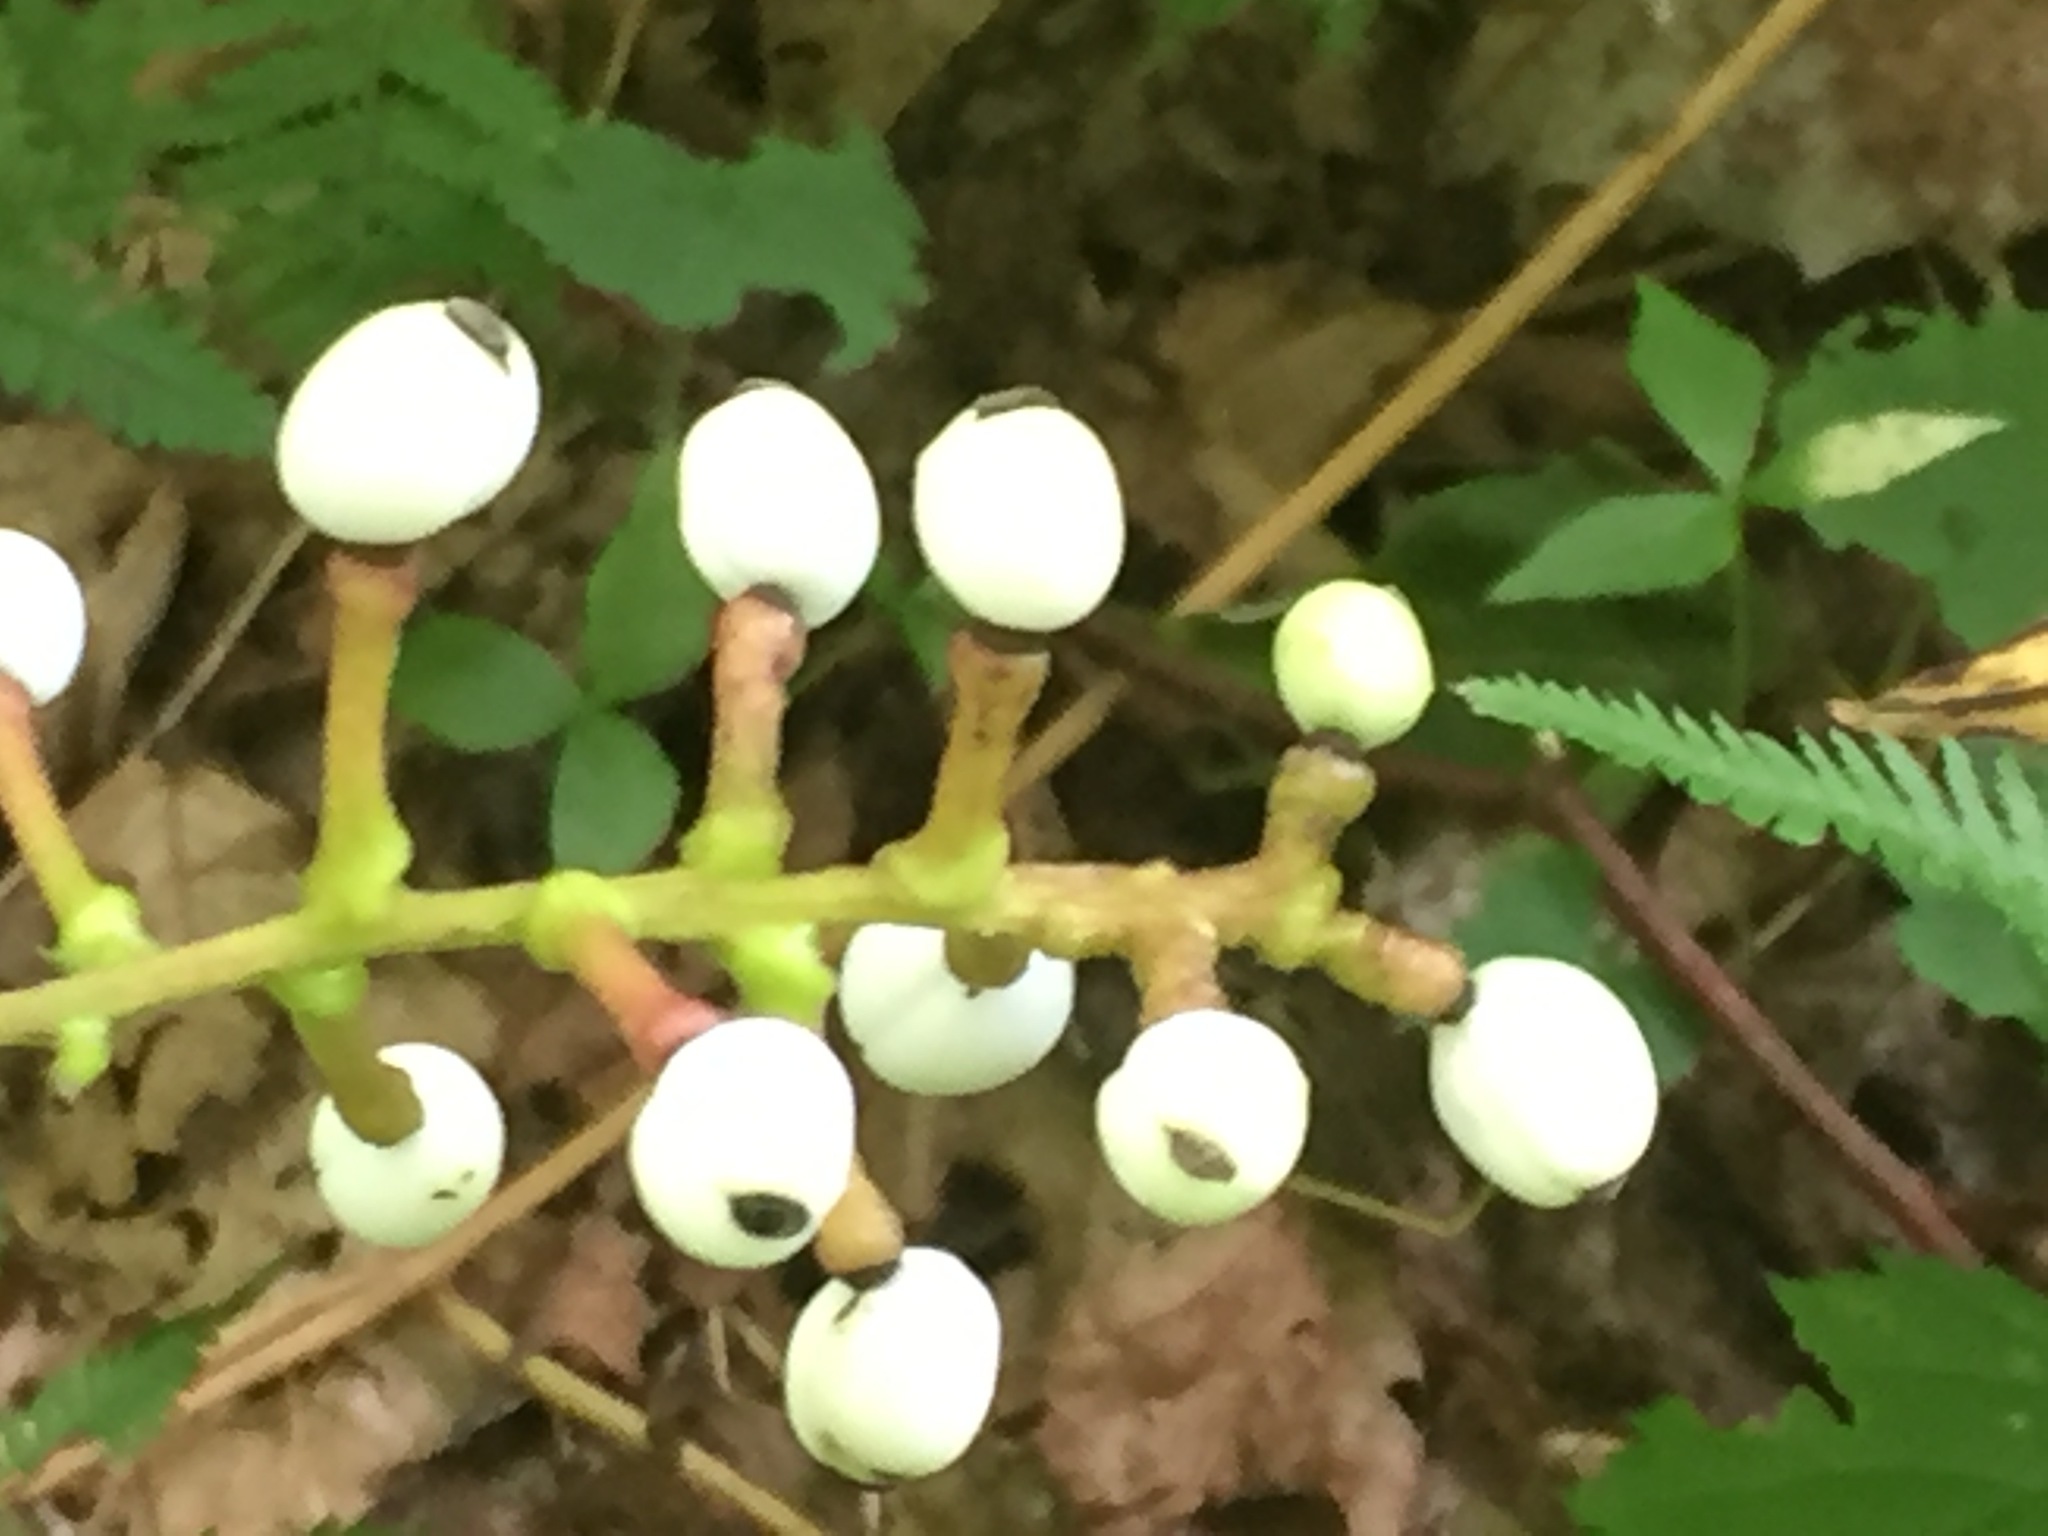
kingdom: Plantae
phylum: Tracheophyta
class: Magnoliopsida
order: Ranunculales
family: Ranunculaceae
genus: Actaea
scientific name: Actaea pachypoda
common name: Doll's-eyes
